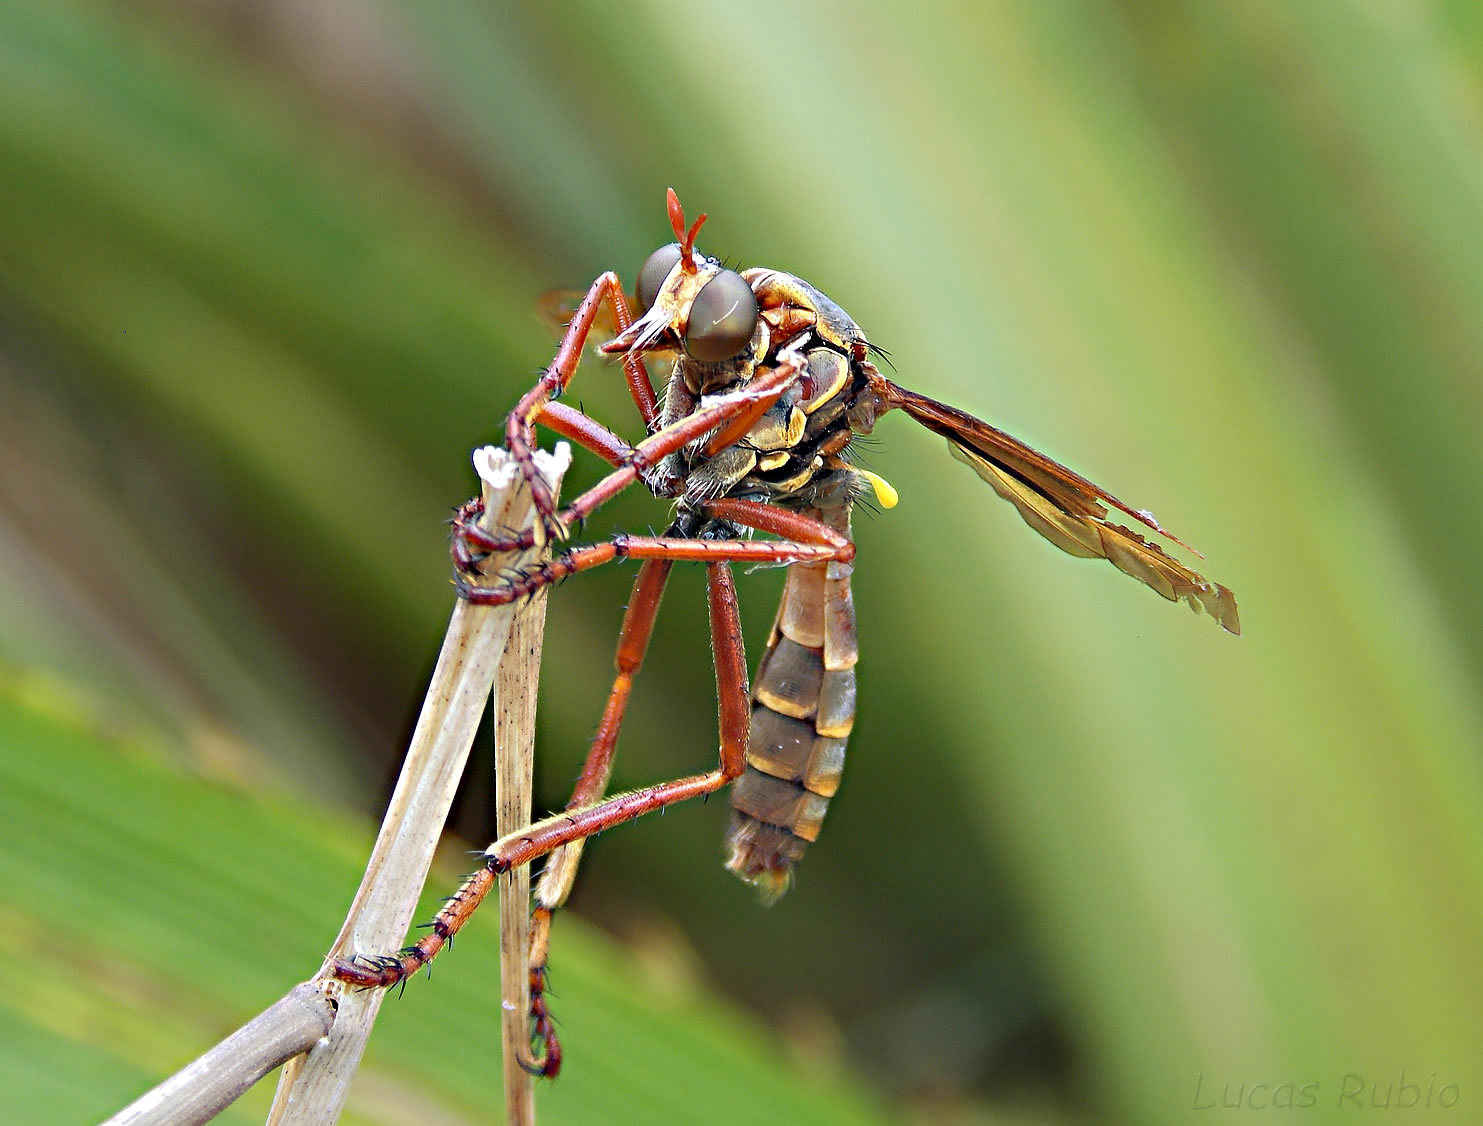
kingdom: Animalia
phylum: Arthropoda
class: Insecta
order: Diptera
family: Asilidae
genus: Blepharepium
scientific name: Blepharepium cajennense
